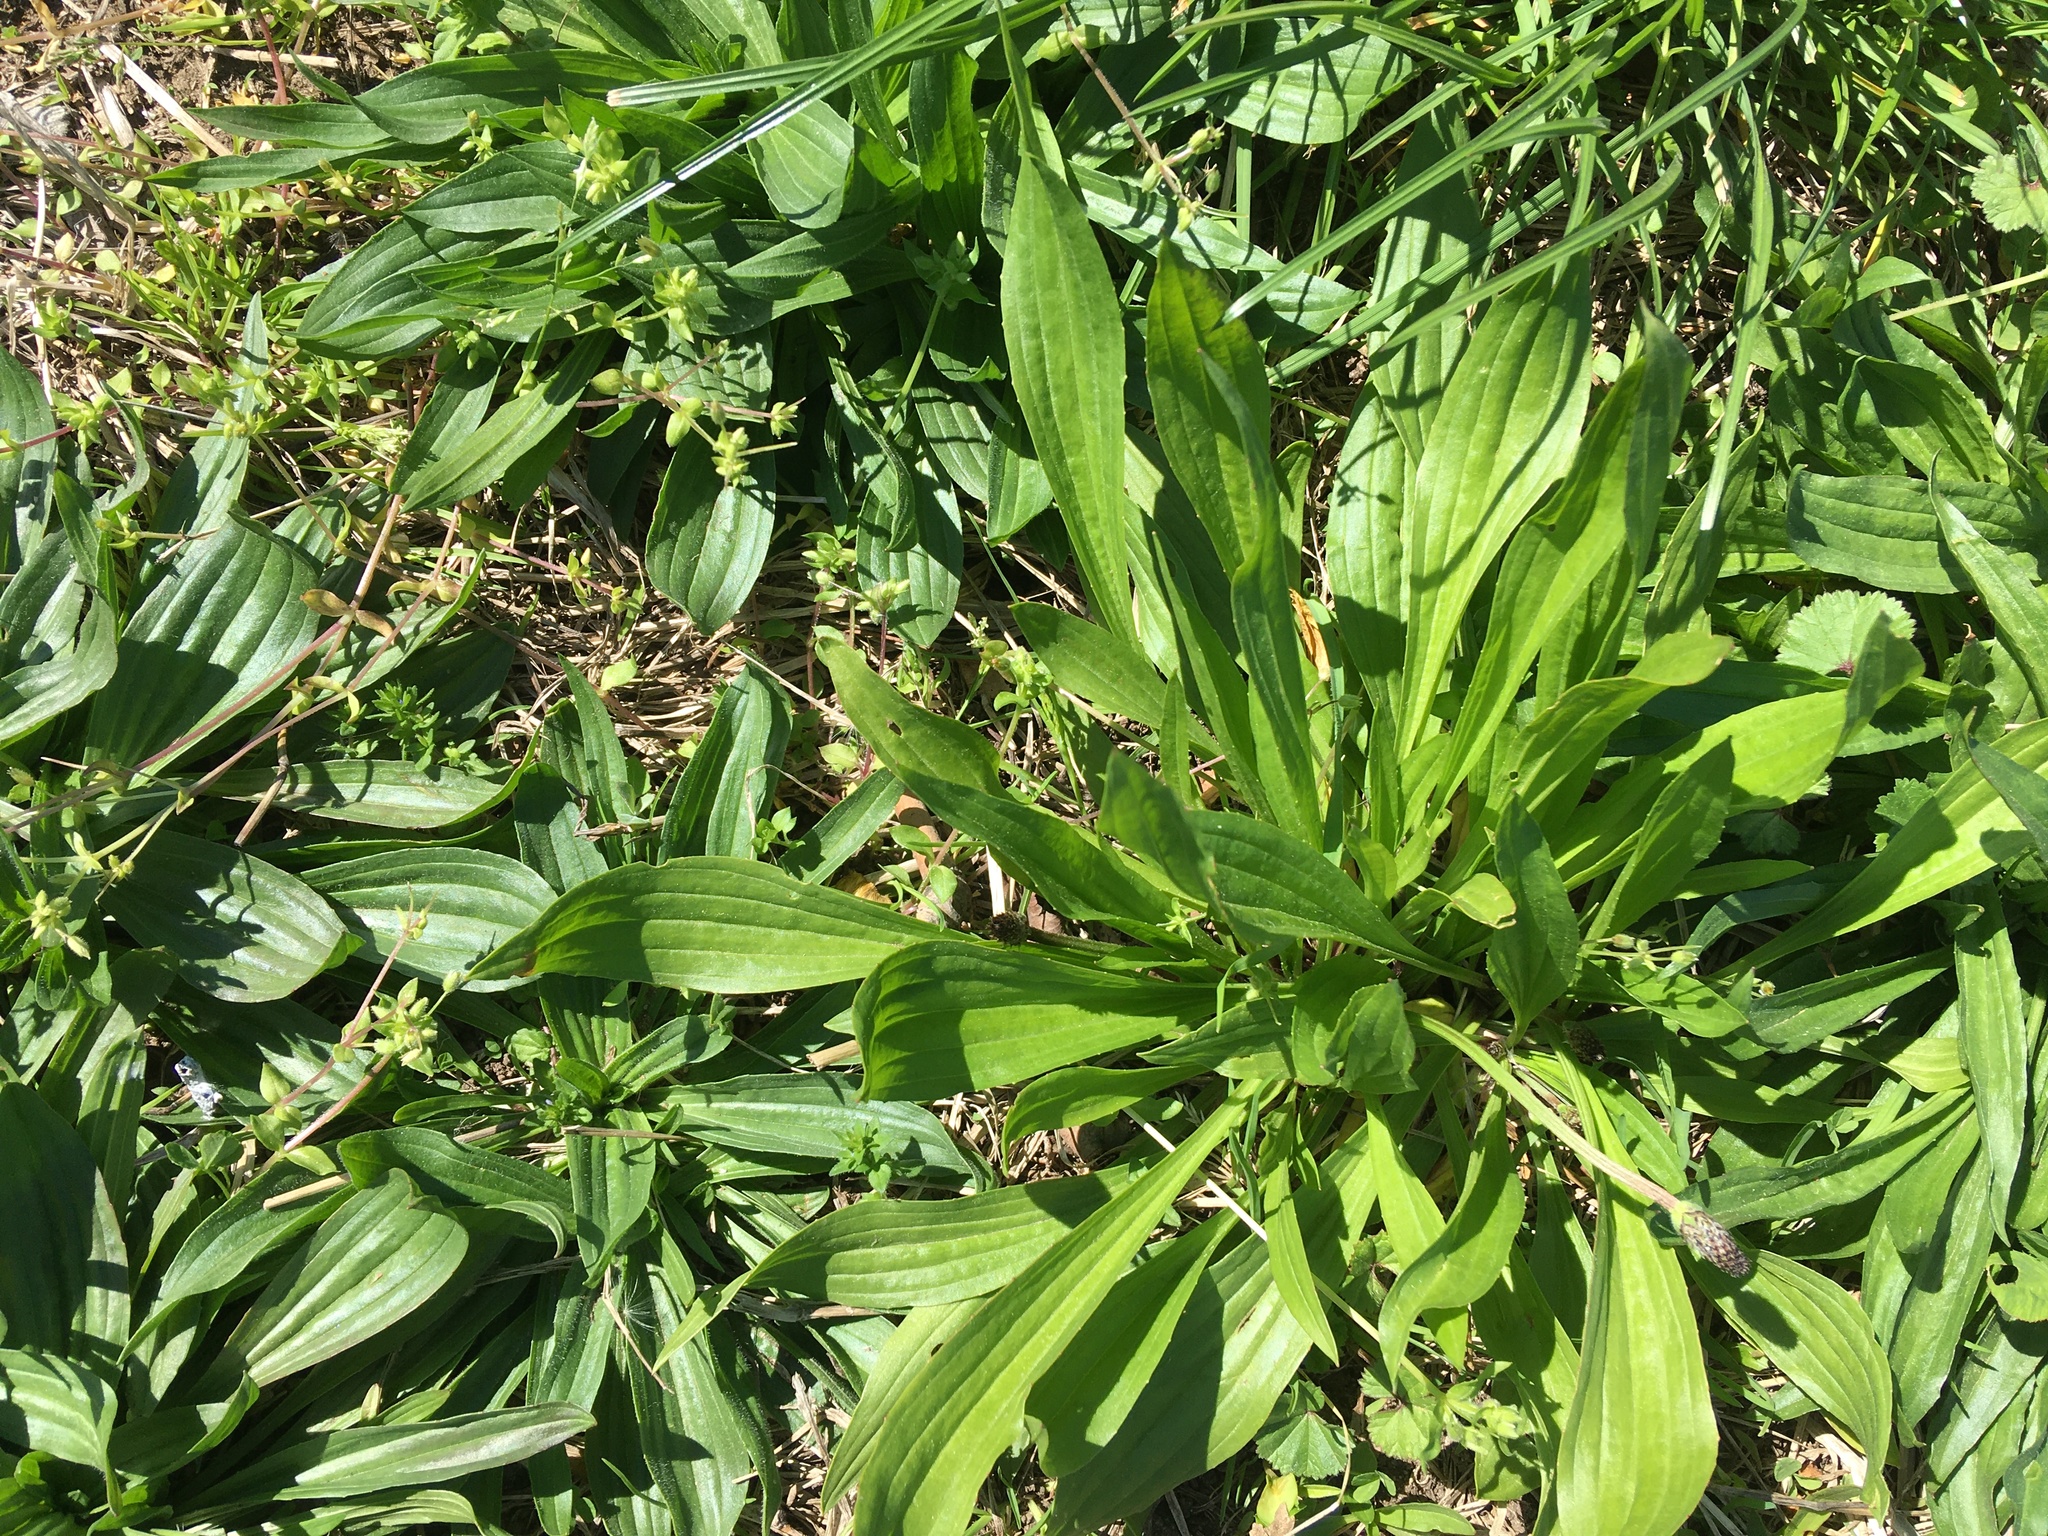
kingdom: Plantae
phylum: Tracheophyta
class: Magnoliopsida
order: Lamiales
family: Plantaginaceae
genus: Plantago
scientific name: Plantago lanceolata
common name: Ribwort plantain
